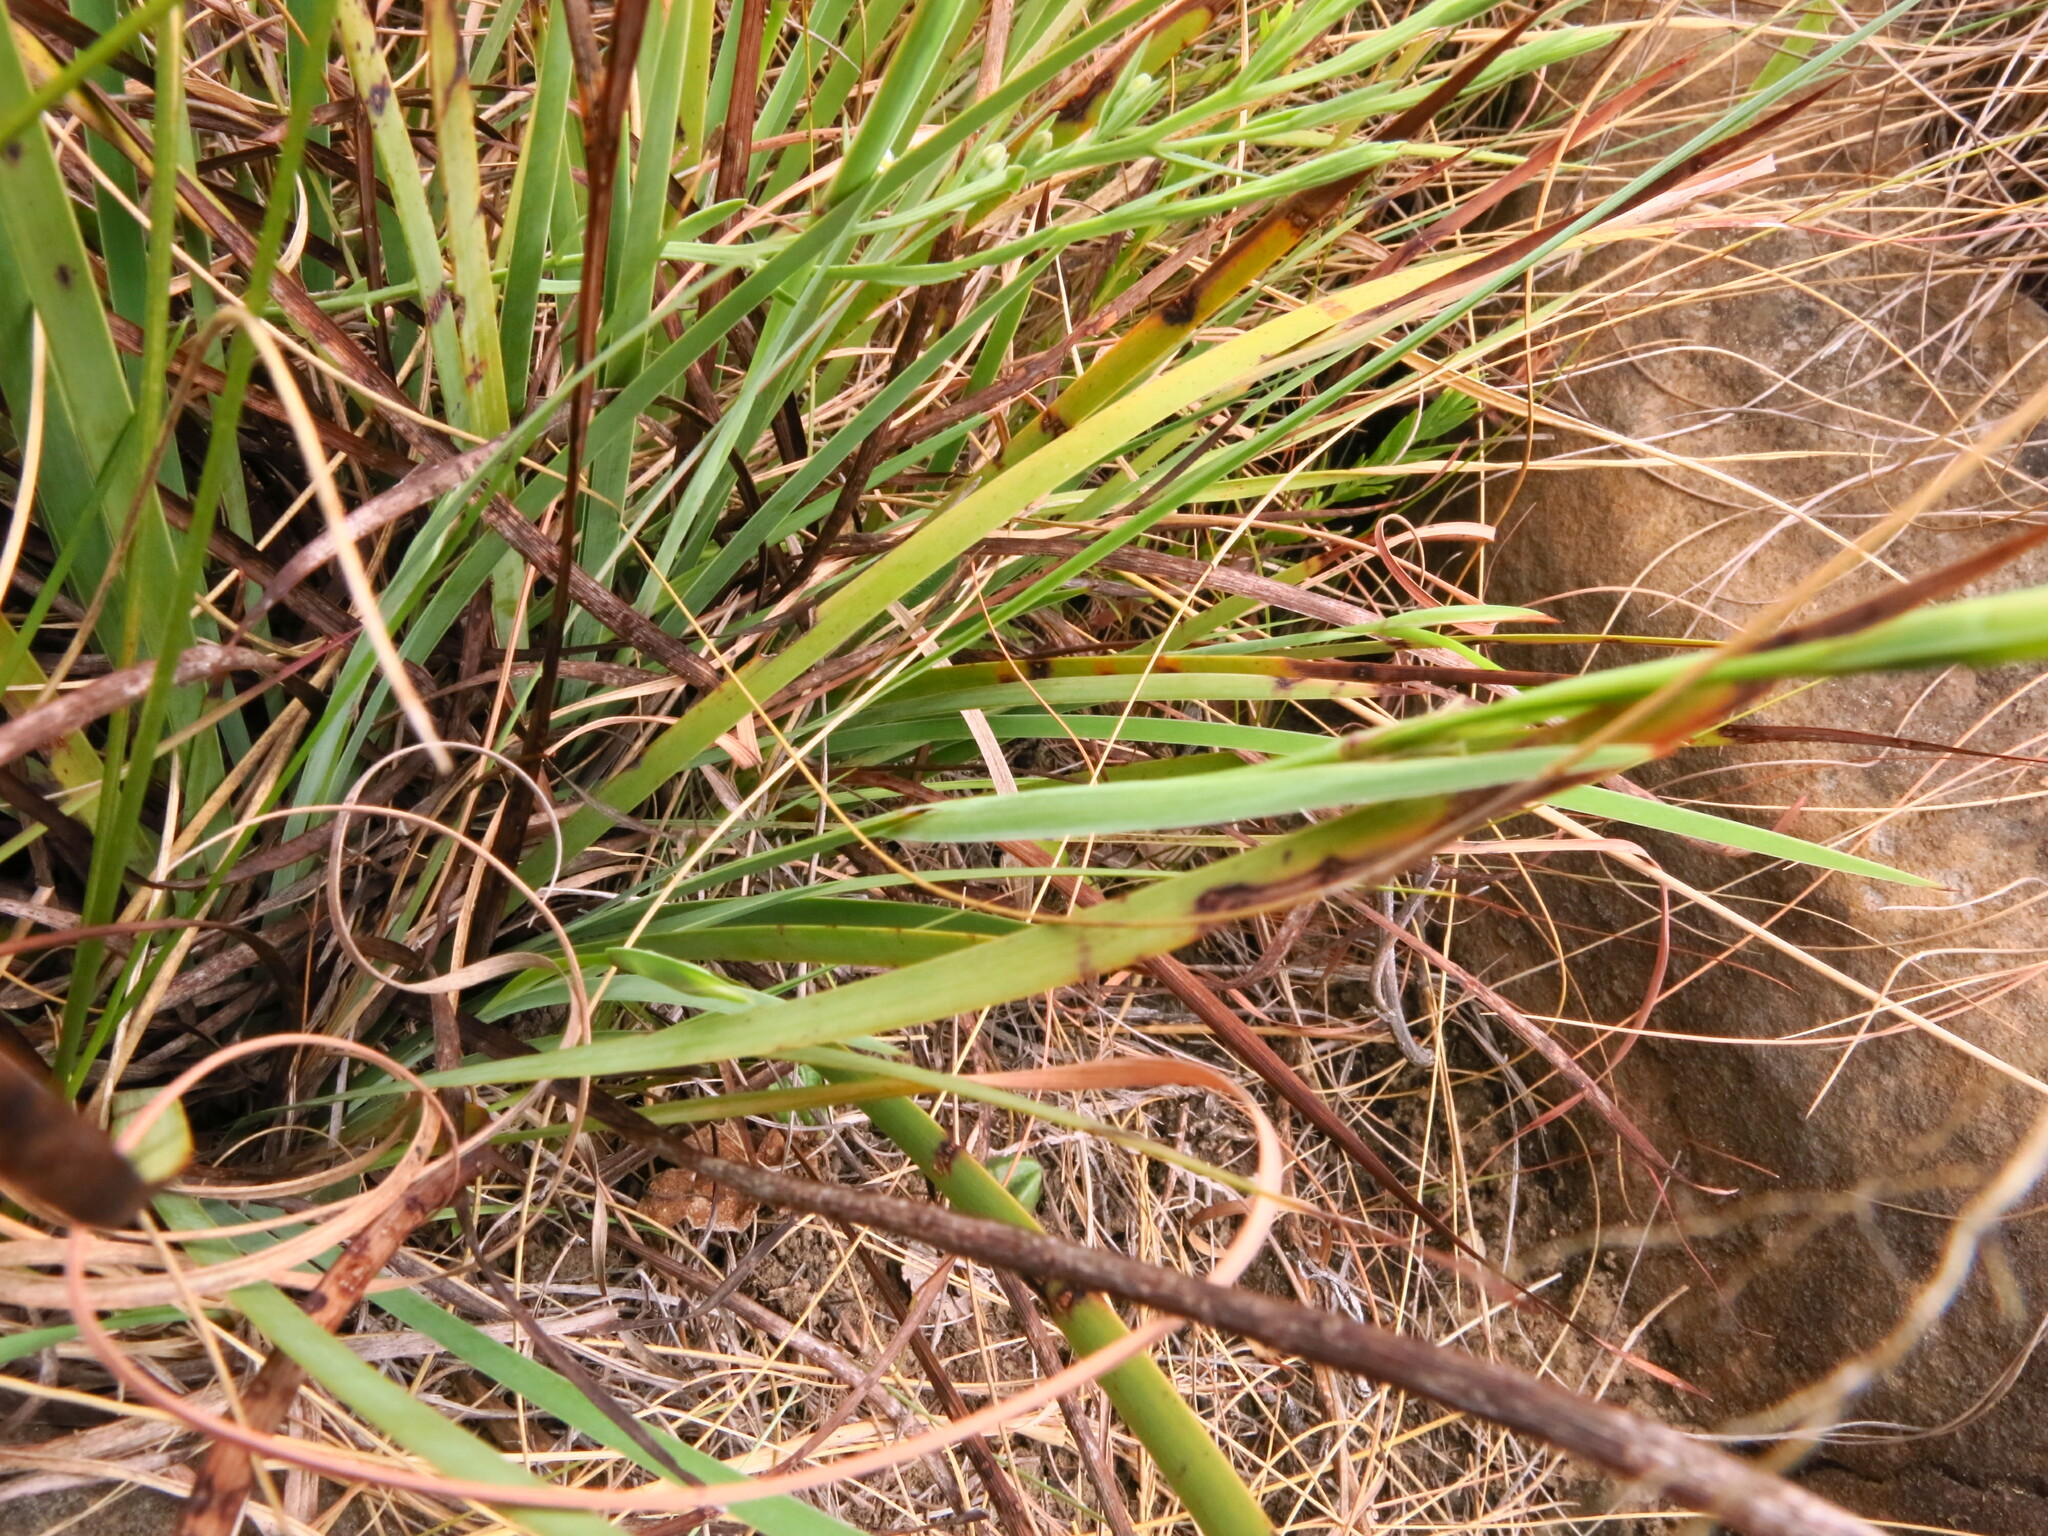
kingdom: Plantae
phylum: Tracheophyta
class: Liliopsida
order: Asparagales
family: Iridaceae
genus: Aristea
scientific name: Aristea torulosa
